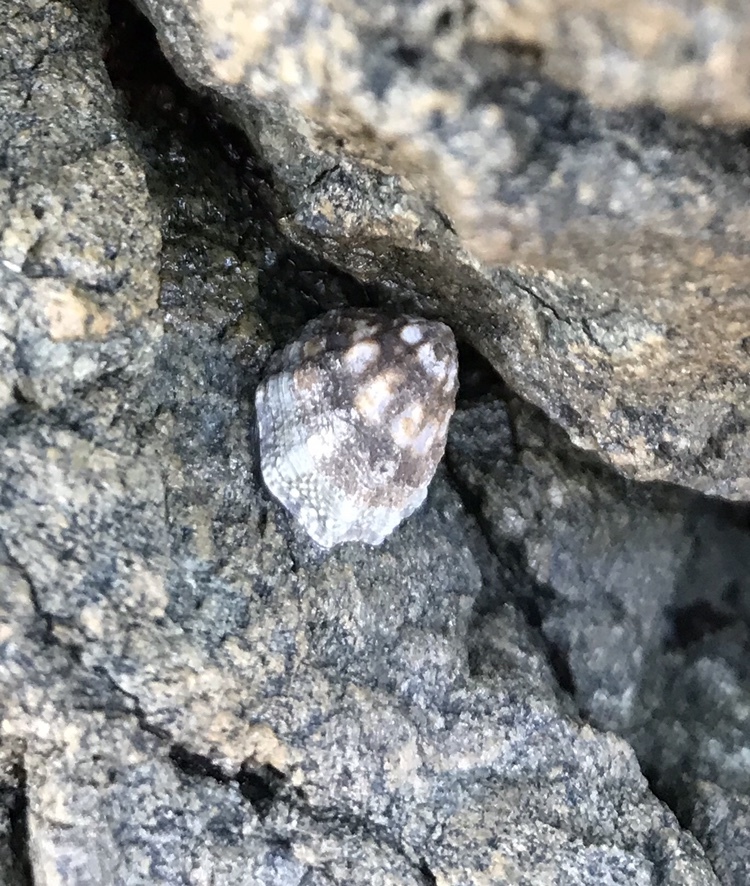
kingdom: Animalia
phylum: Mollusca
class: Gastropoda
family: Lottiidae
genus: Lottia
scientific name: Lottia digitalis
